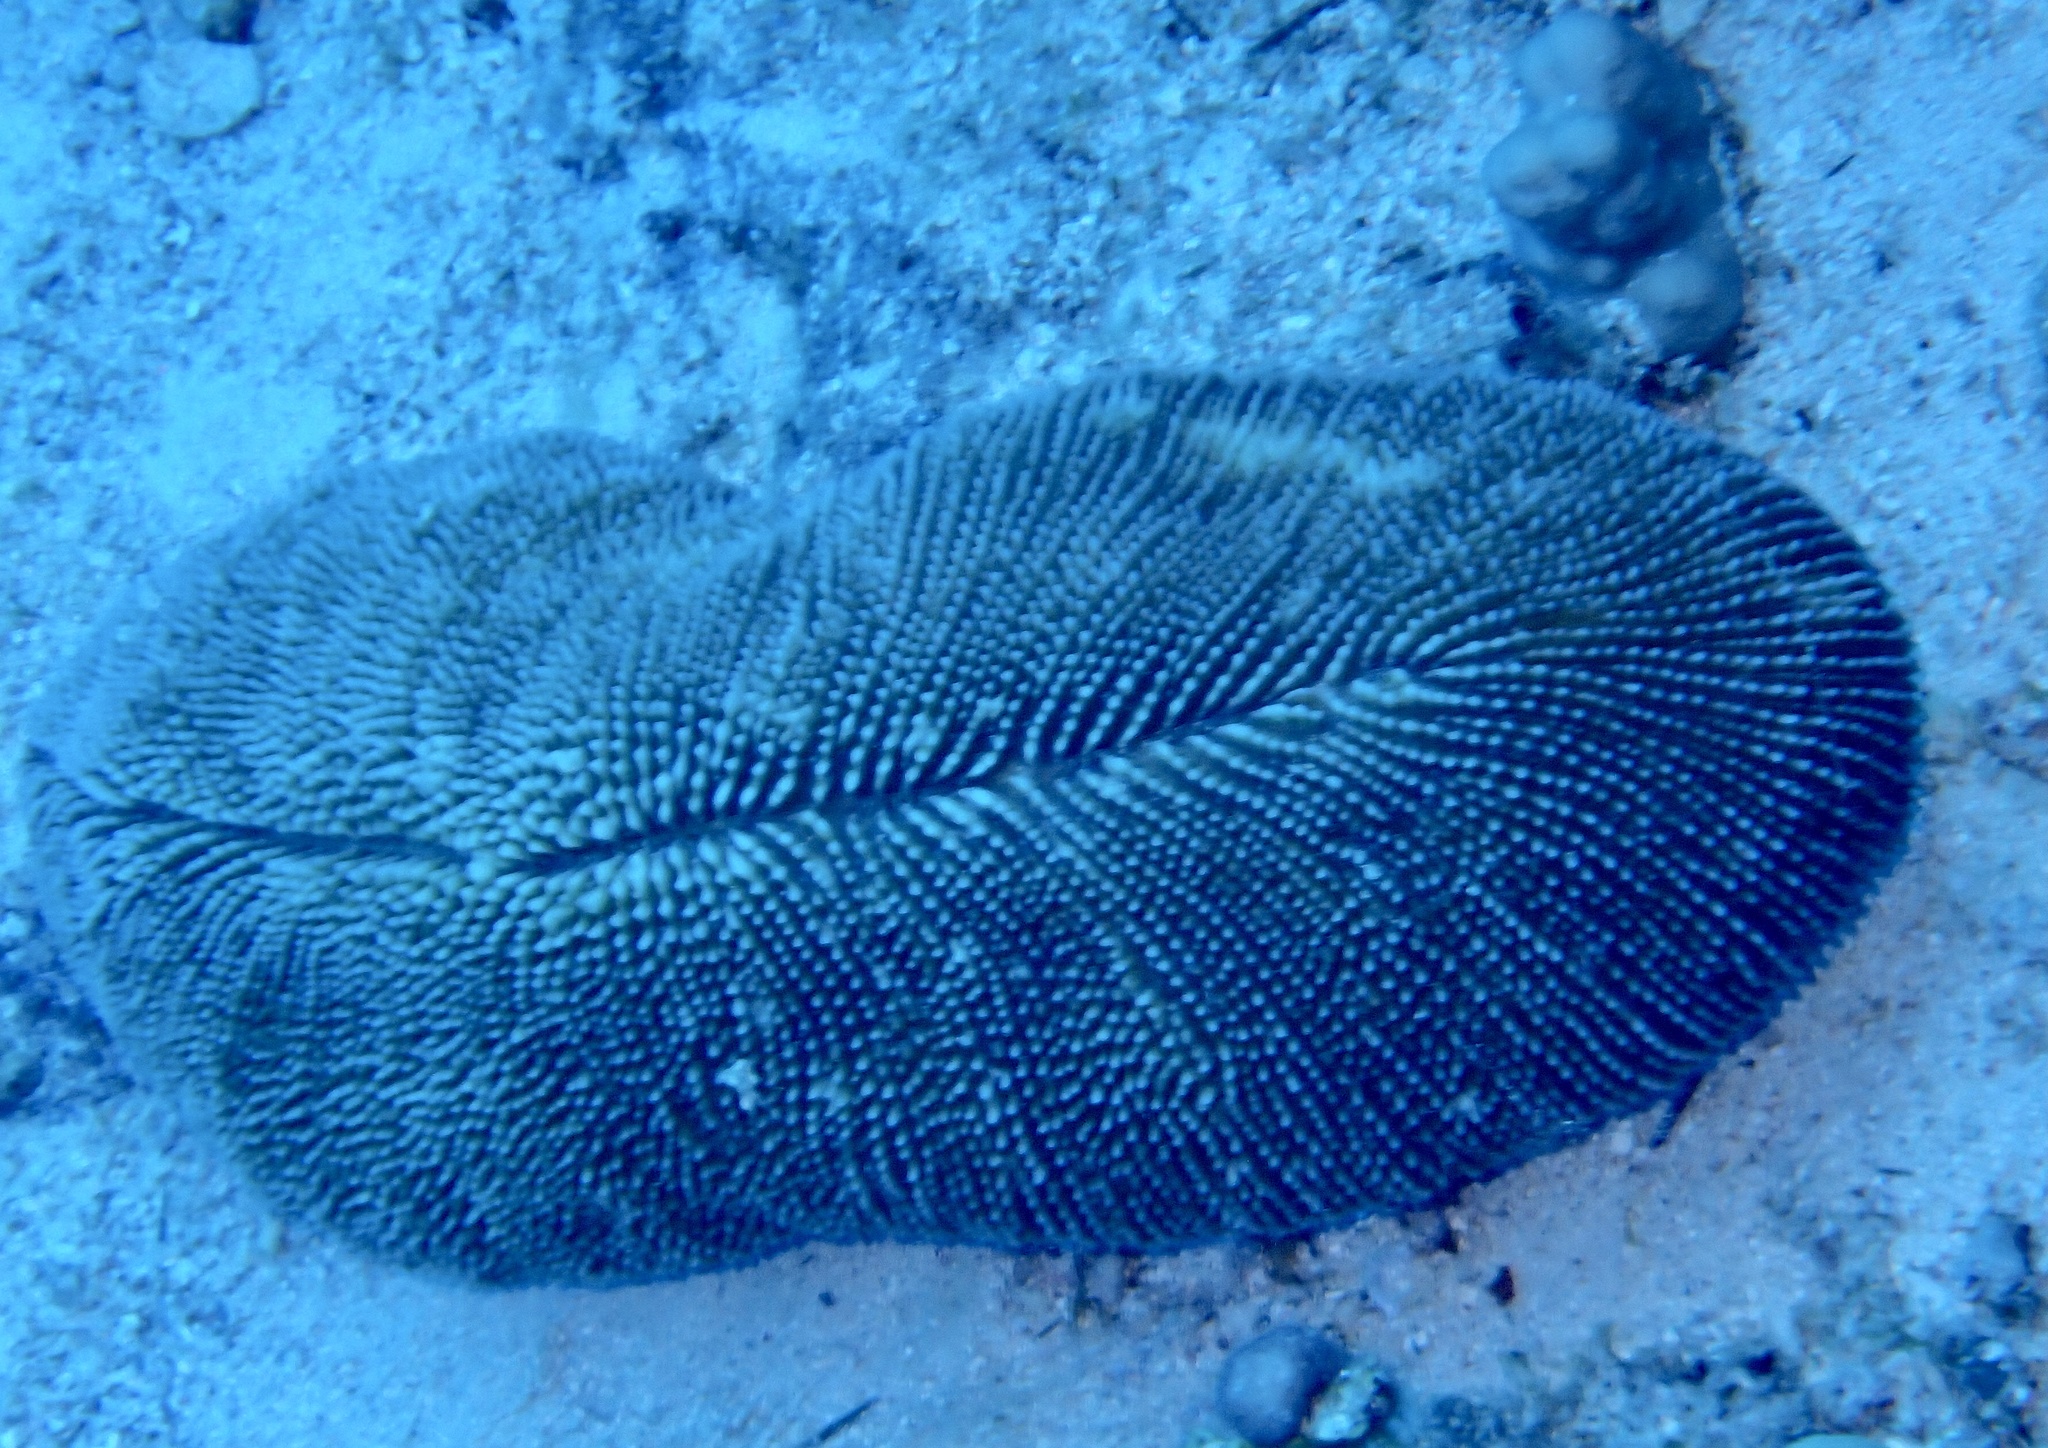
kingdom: Animalia
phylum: Cnidaria
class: Anthozoa
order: Scleractinia
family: Fungiidae
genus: Ctenactis
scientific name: Ctenactis crassa
